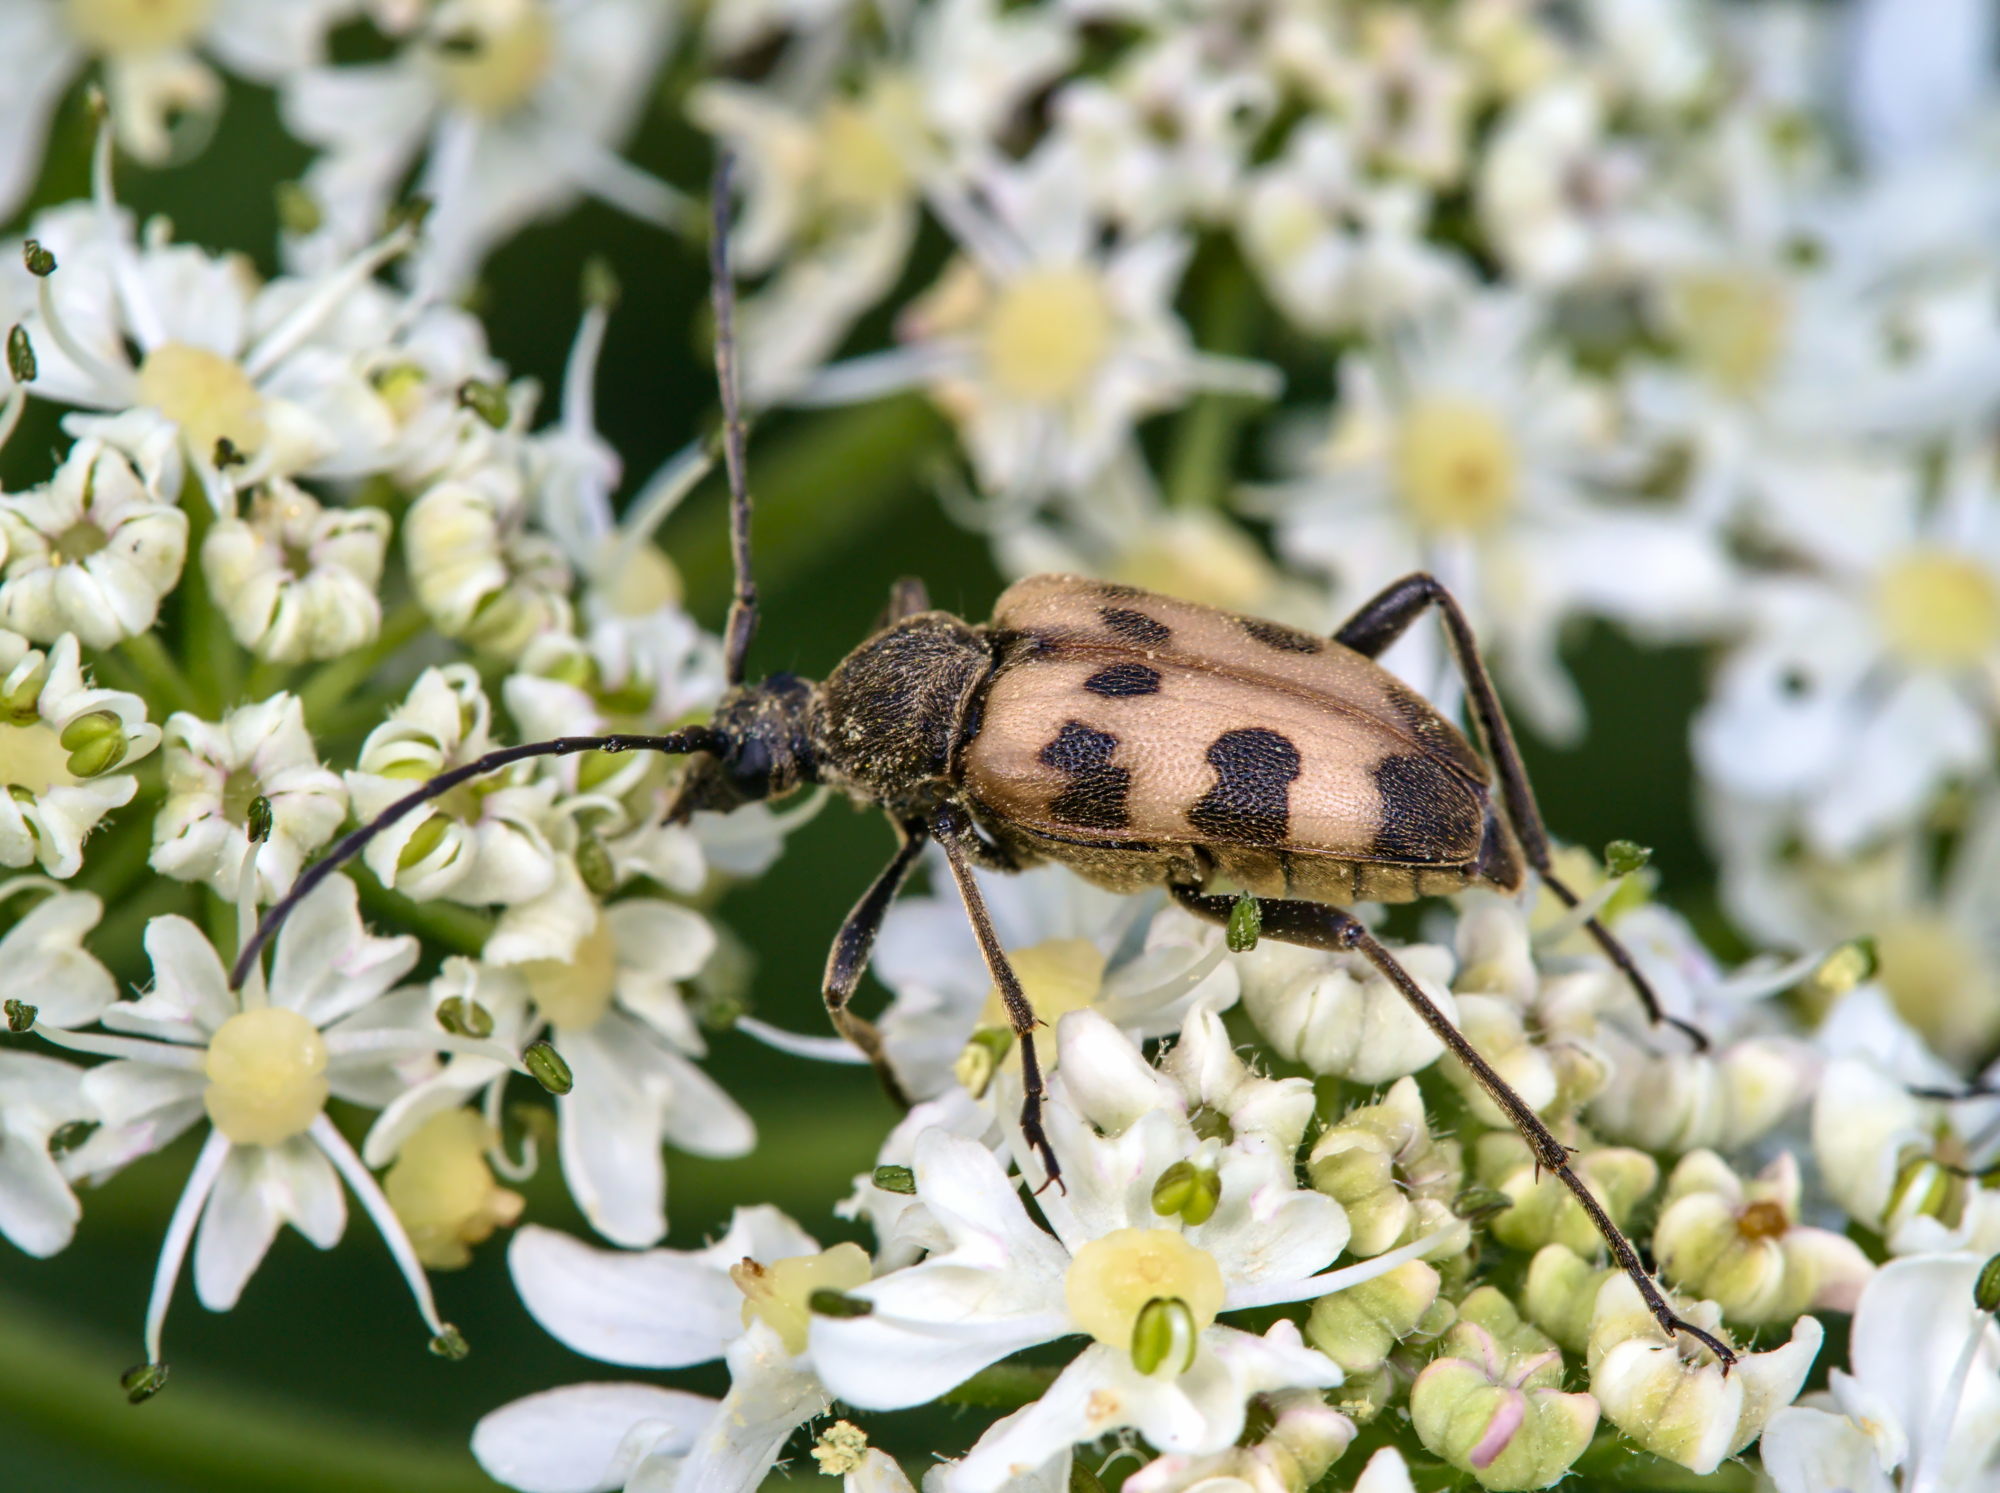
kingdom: Animalia
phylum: Arthropoda
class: Insecta
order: Coleoptera
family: Cerambycidae
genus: Pachytodes
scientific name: Pachytodes cerambyciformis
